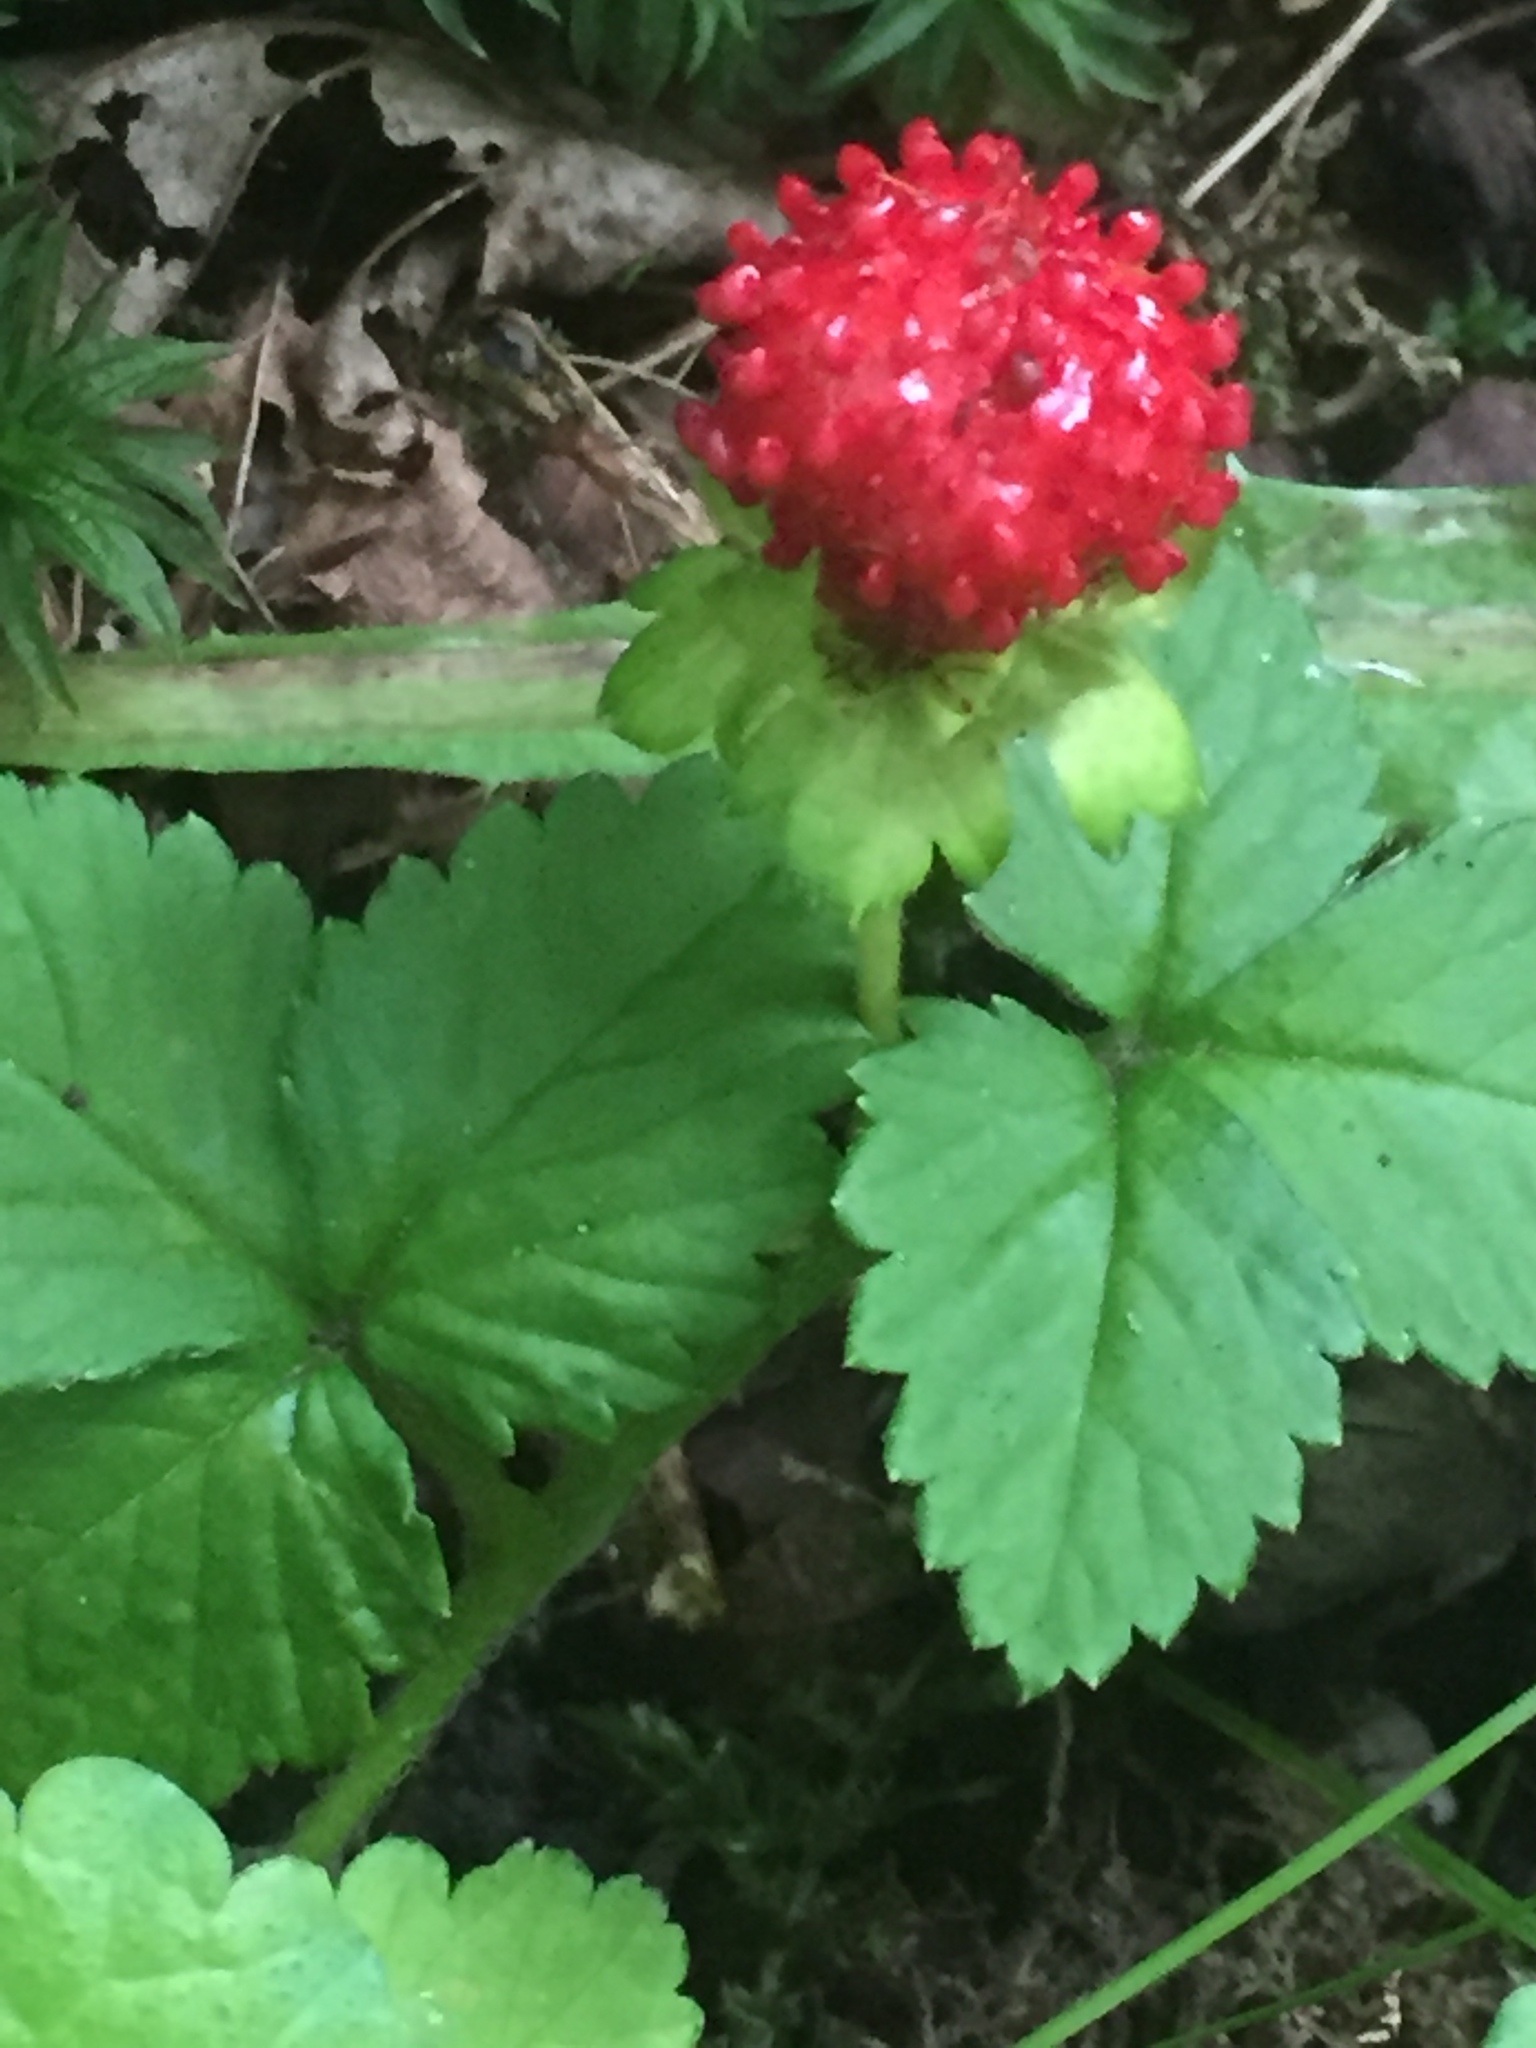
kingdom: Plantae
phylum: Tracheophyta
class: Magnoliopsida
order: Rosales
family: Rosaceae
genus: Potentilla
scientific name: Potentilla indica
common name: Yellow-flowered strawberry
